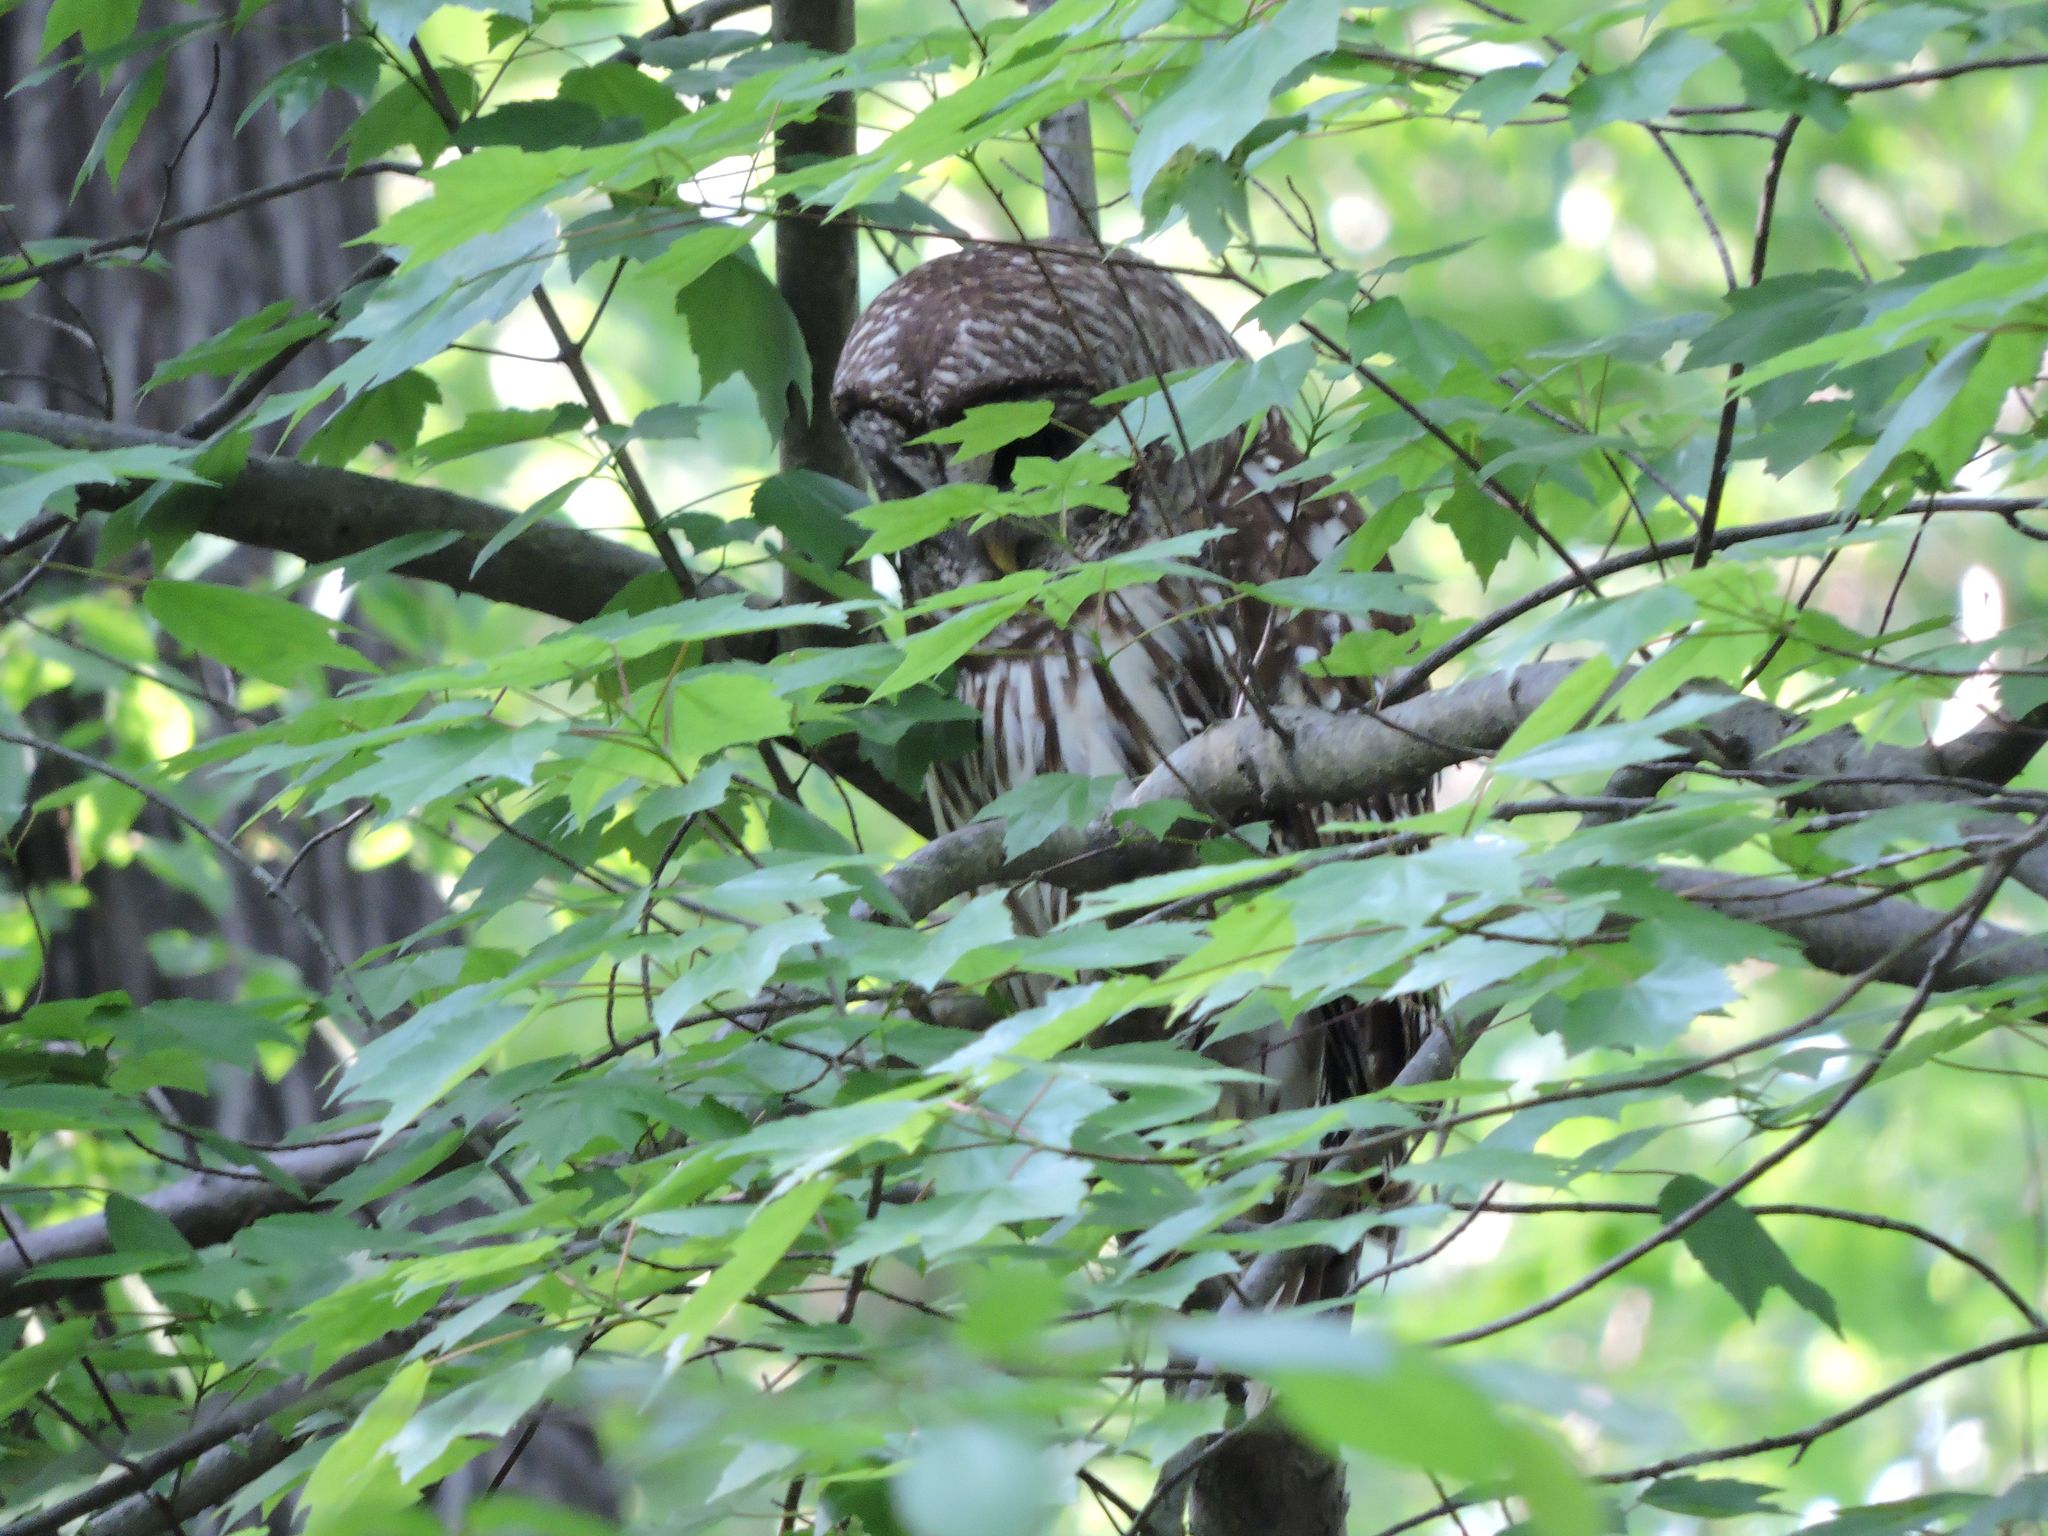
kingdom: Animalia
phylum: Chordata
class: Aves
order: Strigiformes
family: Strigidae
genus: Strix
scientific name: Strix varia
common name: Barred owl
